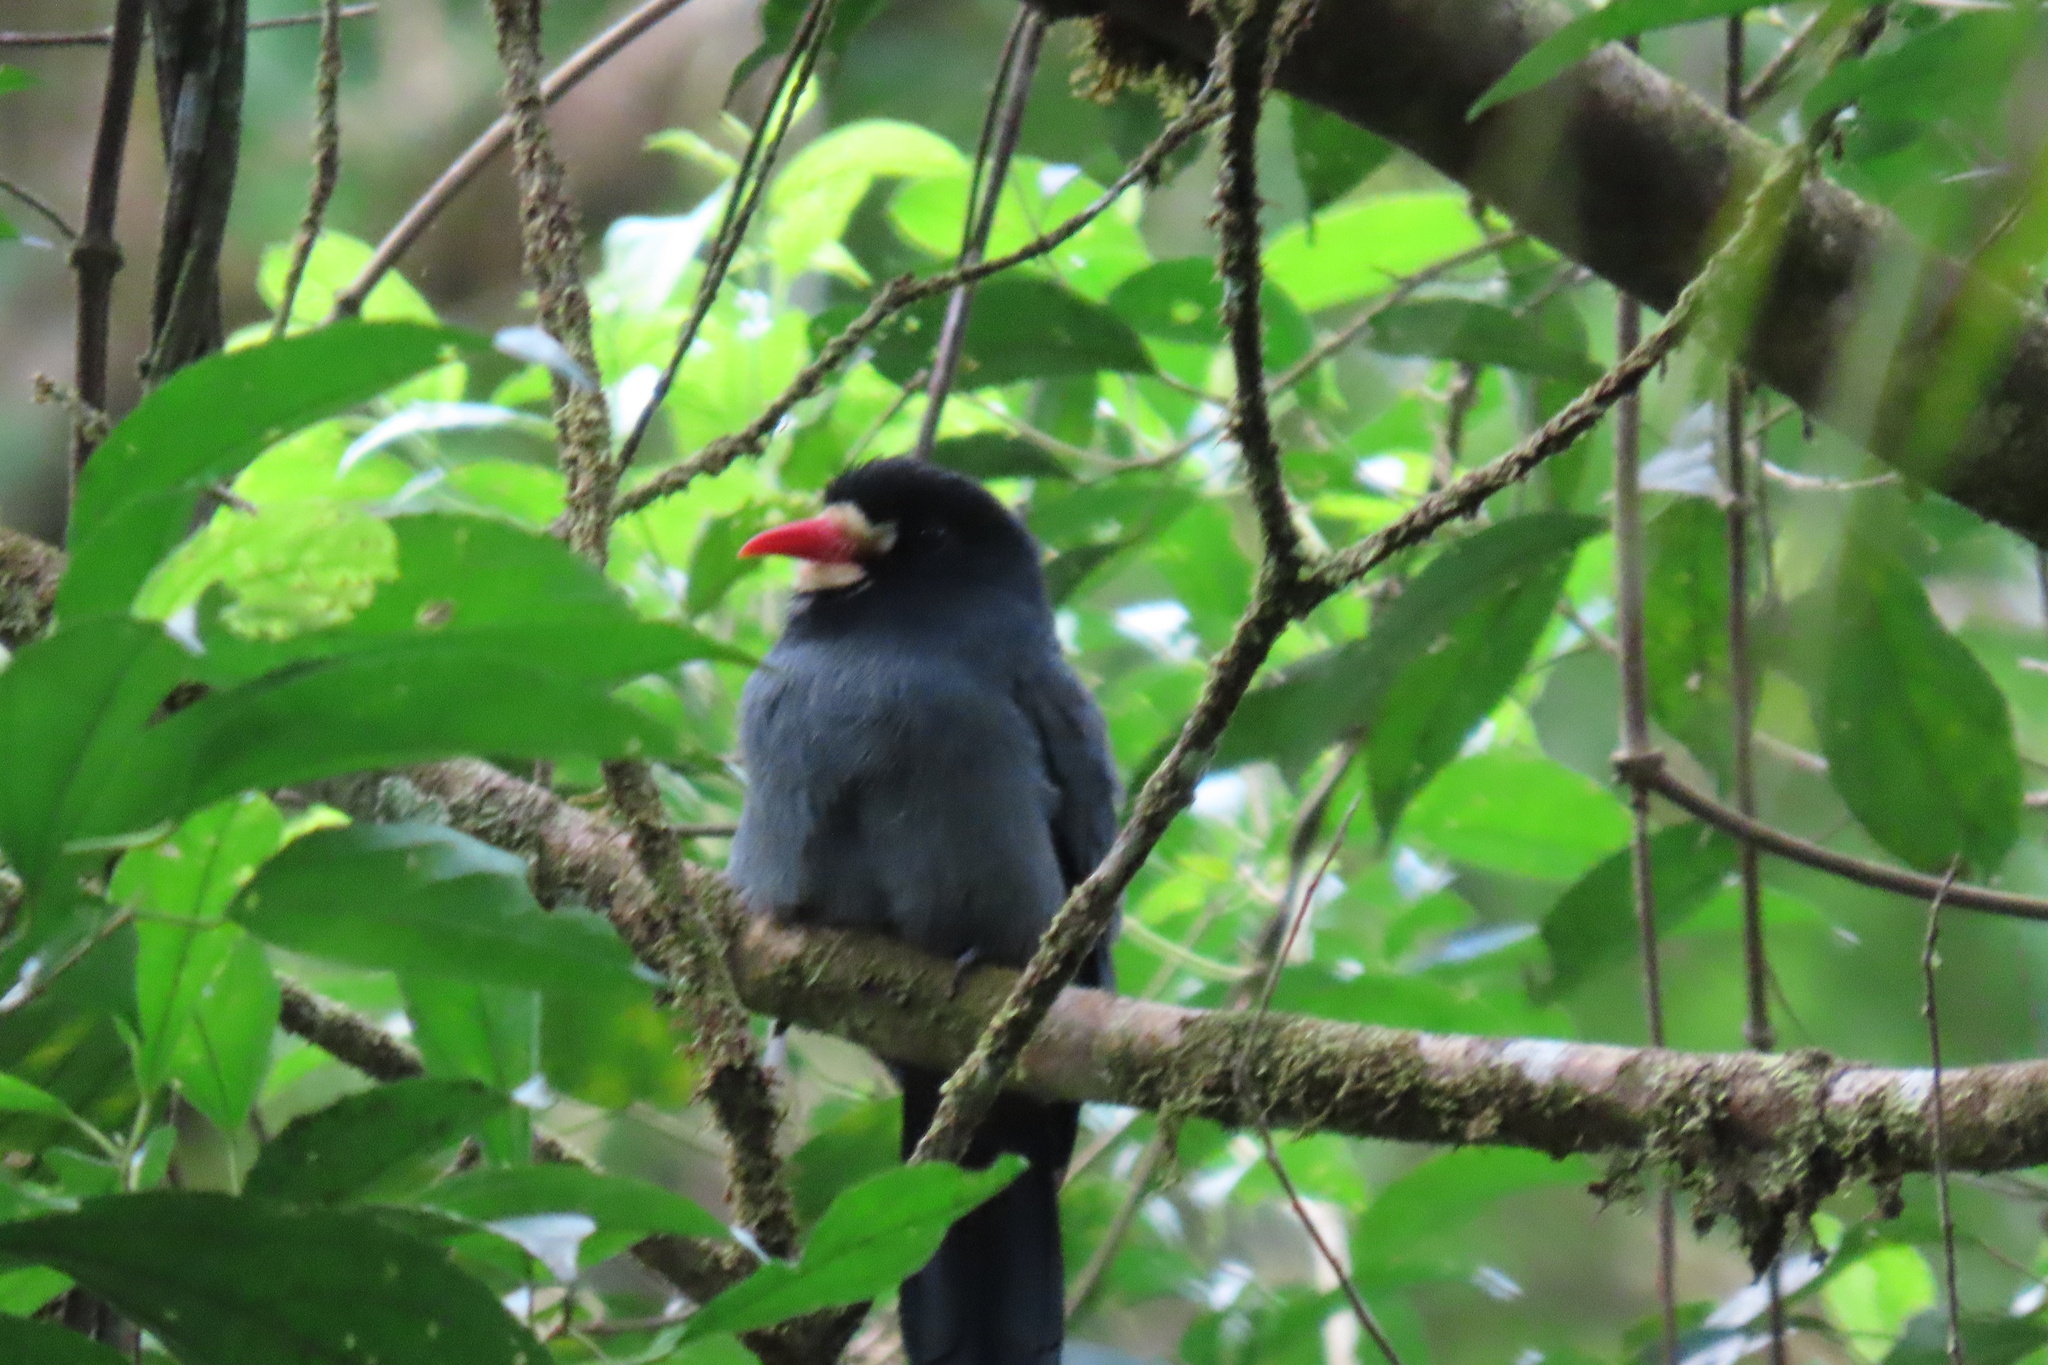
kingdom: Animalia
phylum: Chordata
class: Aves
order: Piciformes
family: Bucconidae
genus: Monasa
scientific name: Monasa morphoeus
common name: White-fronted nunbird
